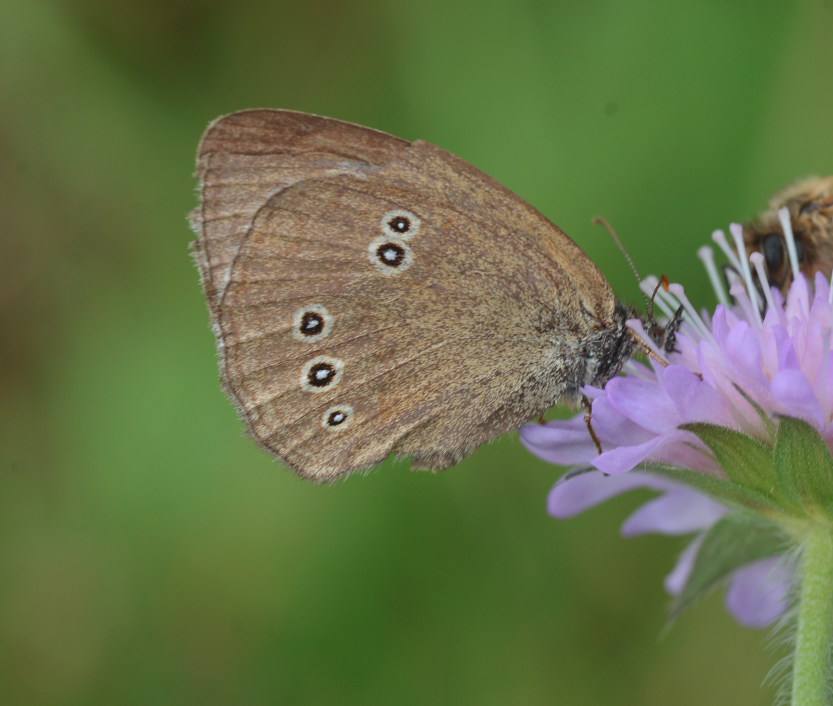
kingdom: Animalia
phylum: Arthropoda
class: Insecta
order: Lepidoptera
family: Nymphalidae
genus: Aphantopus
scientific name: Aphantopus hyperantus
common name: Ringlet
